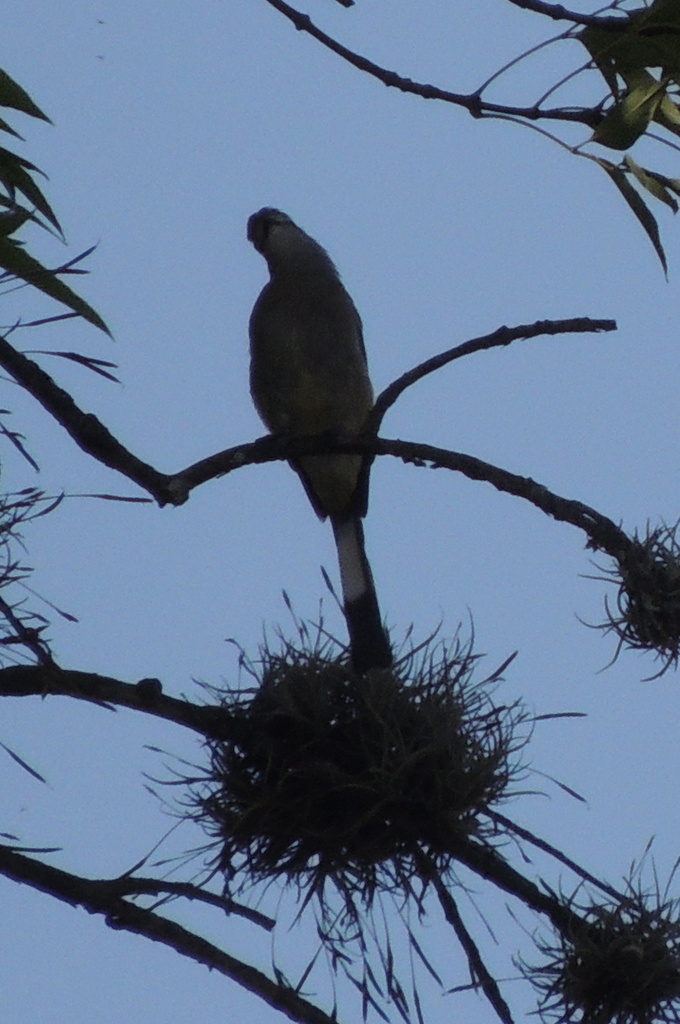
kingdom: Animalia
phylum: Chordata
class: Aves
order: Passeriformes
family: Ptilogonatidae
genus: Ptilogonys
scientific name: Ptilogonys cinereus
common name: Gray silky-flycatcher
